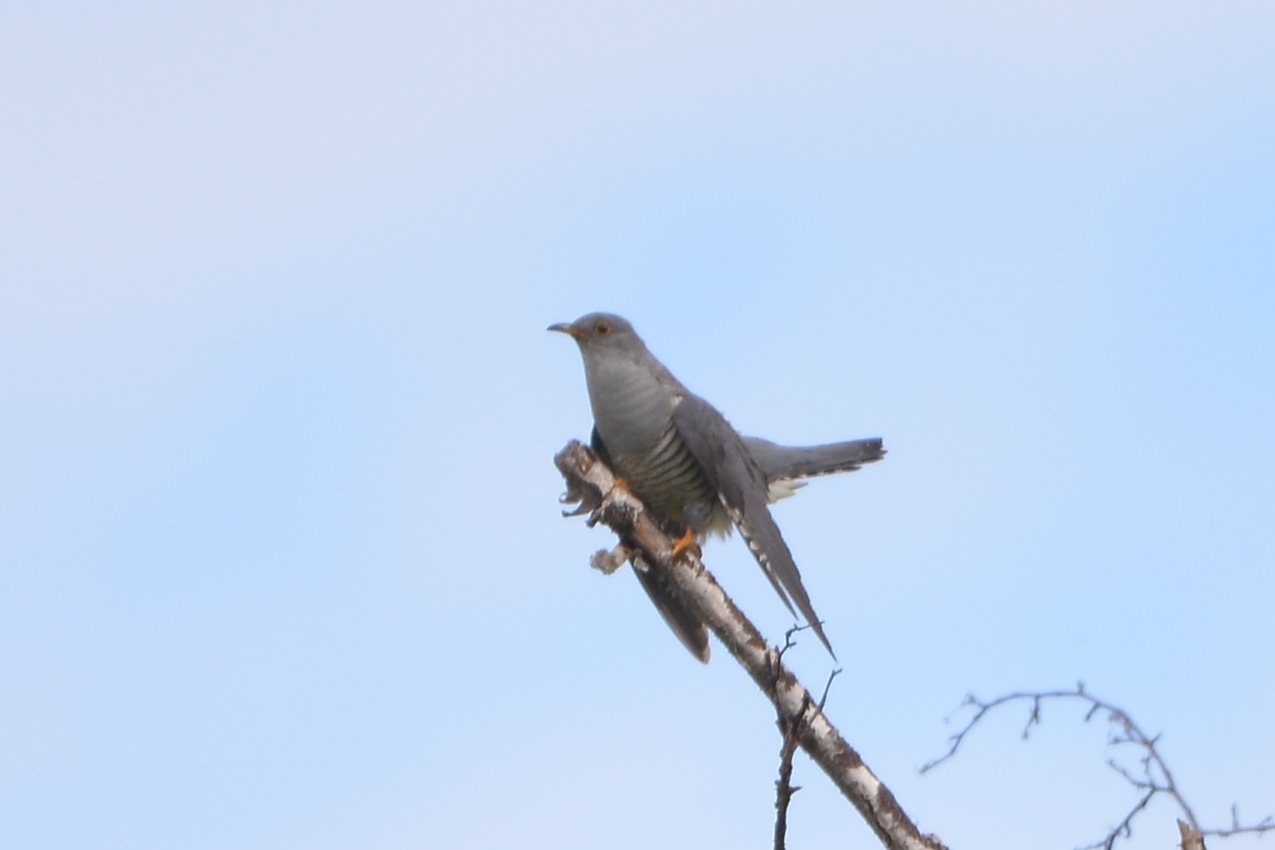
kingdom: Animalia
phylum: Chordata
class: Aves
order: Cuculiformes
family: Cuculidae
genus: Cuculus
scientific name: Cuculus optatus
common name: Oriental cuckoo
